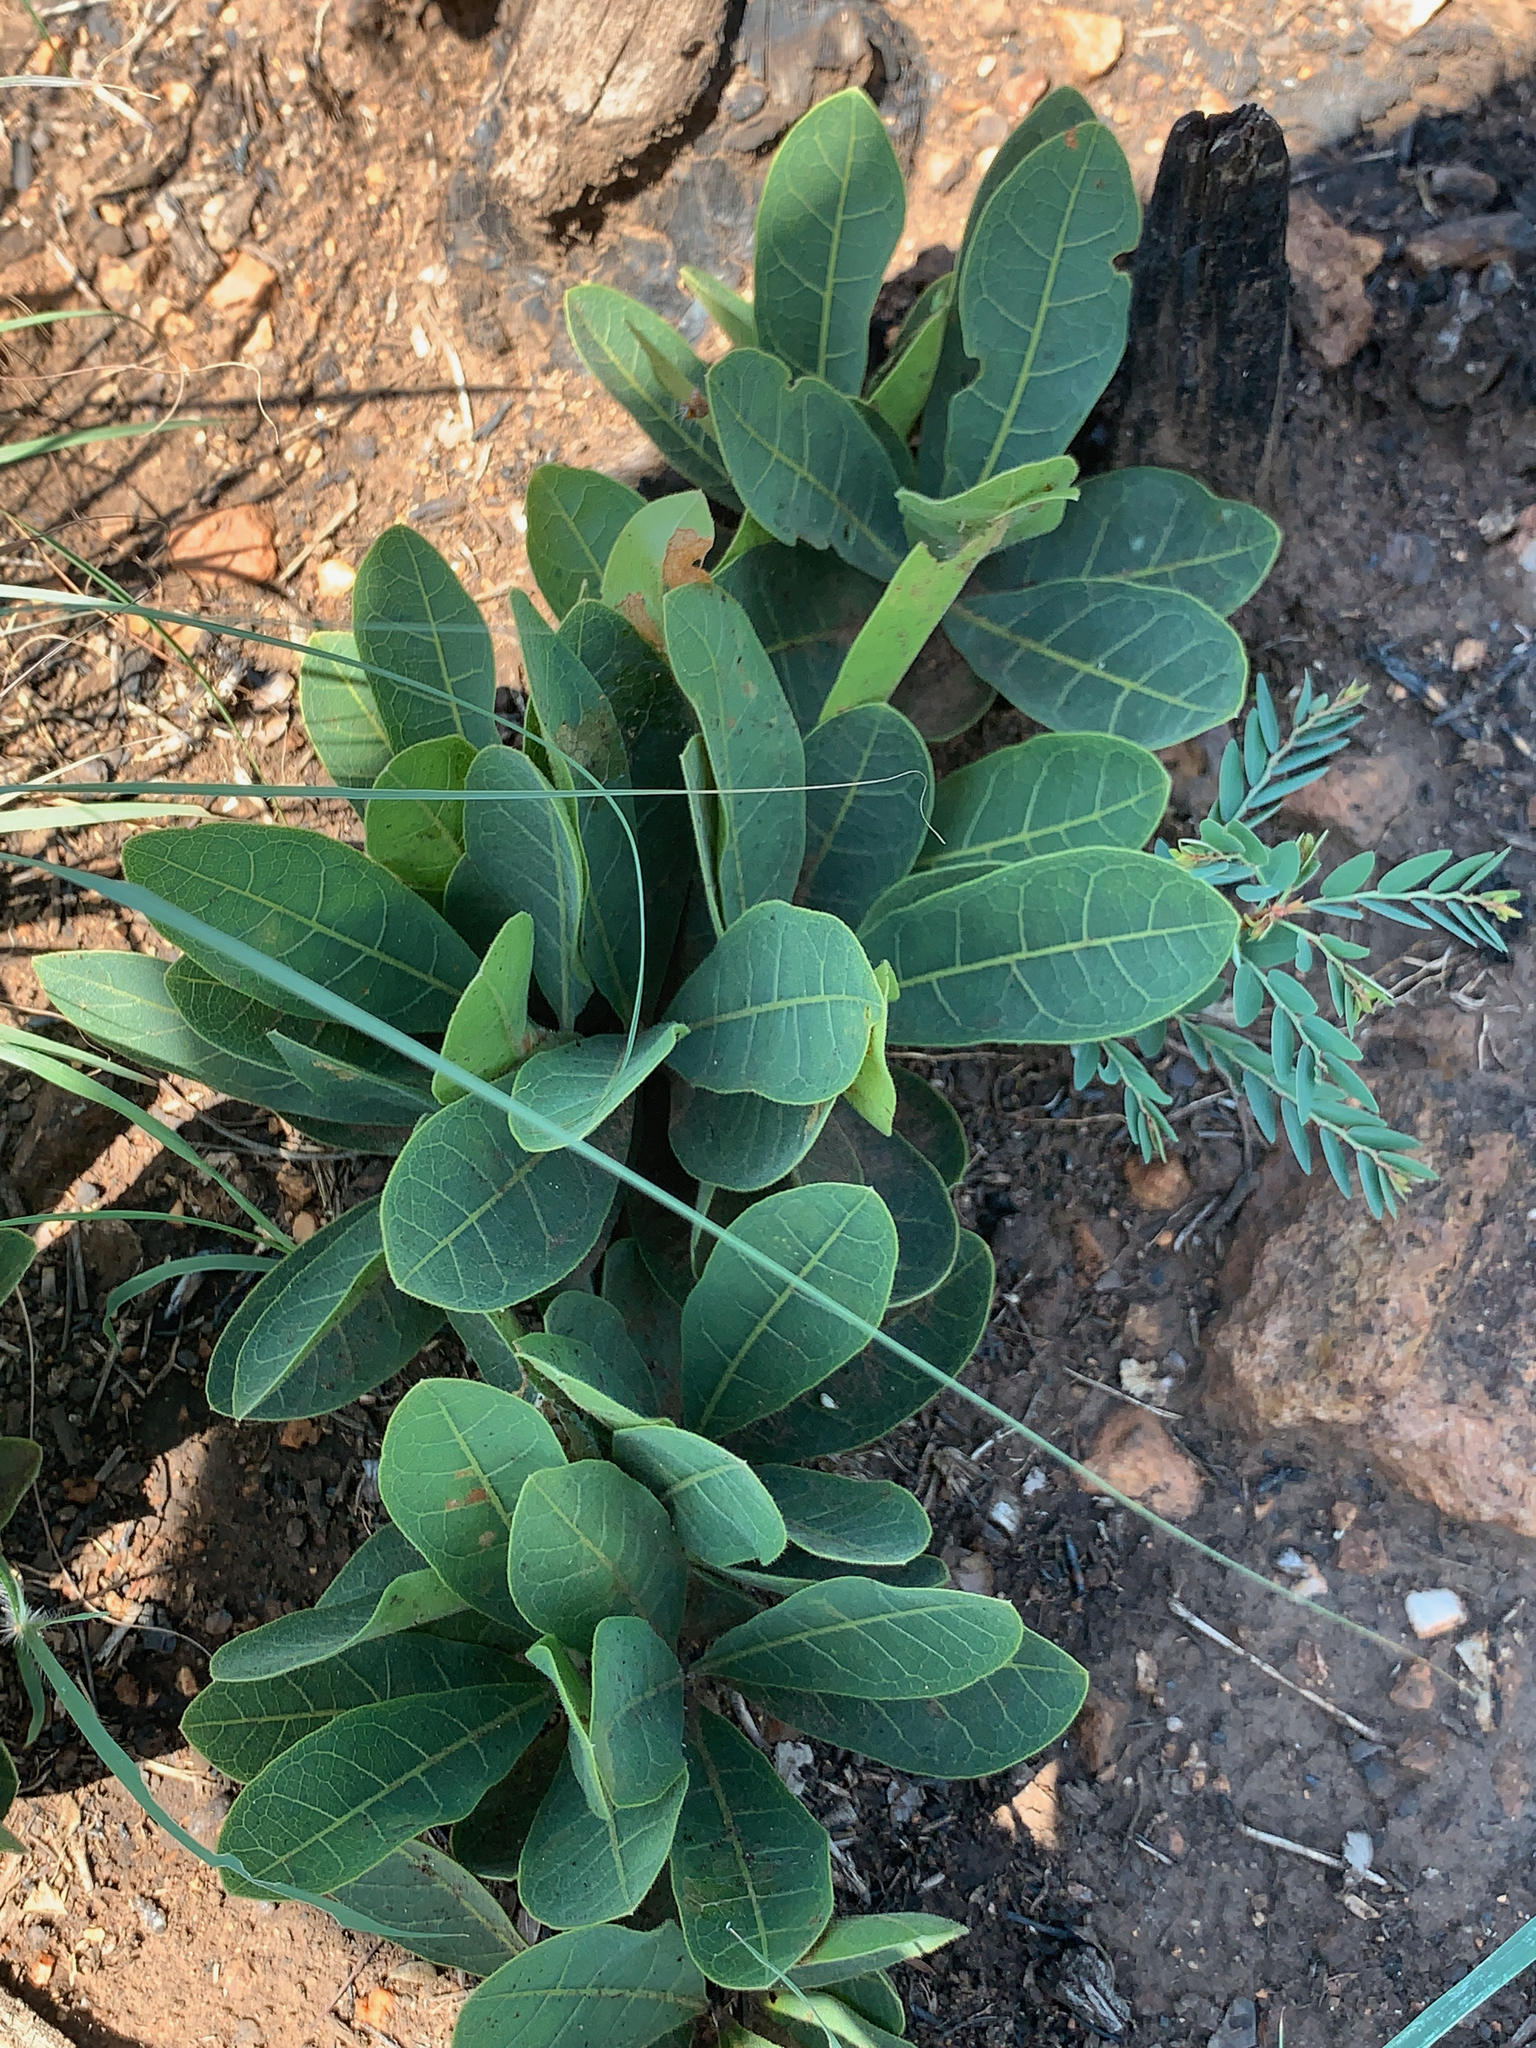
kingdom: Plantae
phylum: Tracheophyta
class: Magnoliopsida
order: Malpighiales
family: Chrysobalanaceae
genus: Parinari
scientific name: Parinari capensis
